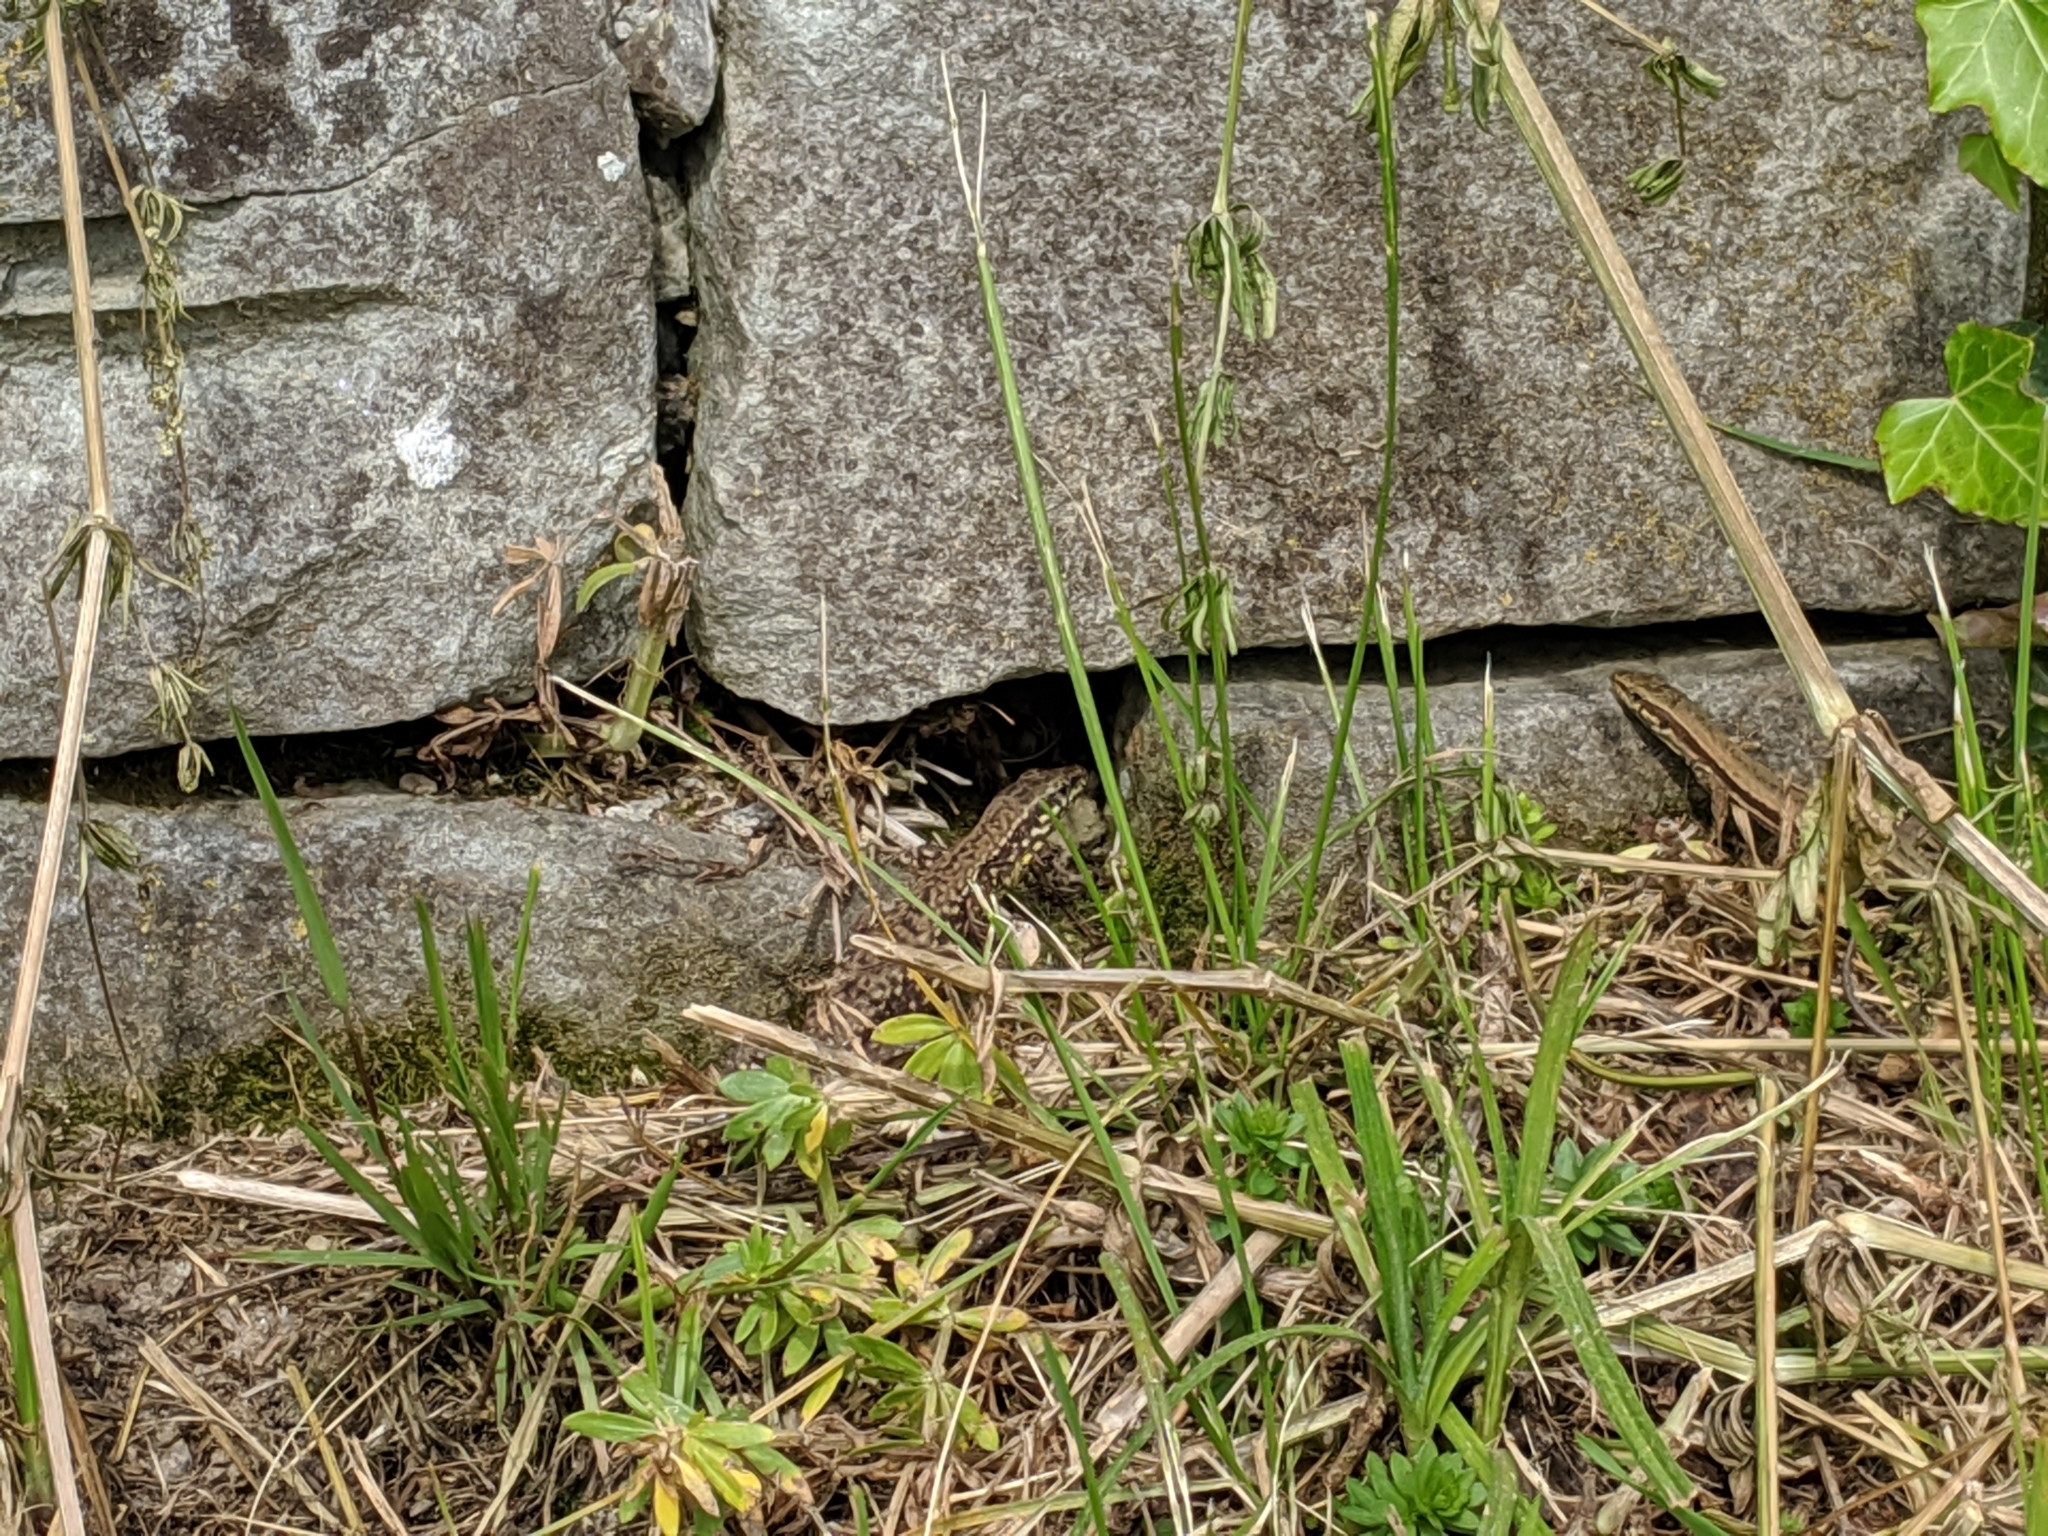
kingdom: Animalia
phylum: Chordata
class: Squamata
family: Lacertidae
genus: Podarcis
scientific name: Podarcis muralis
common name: Common wall lizard
